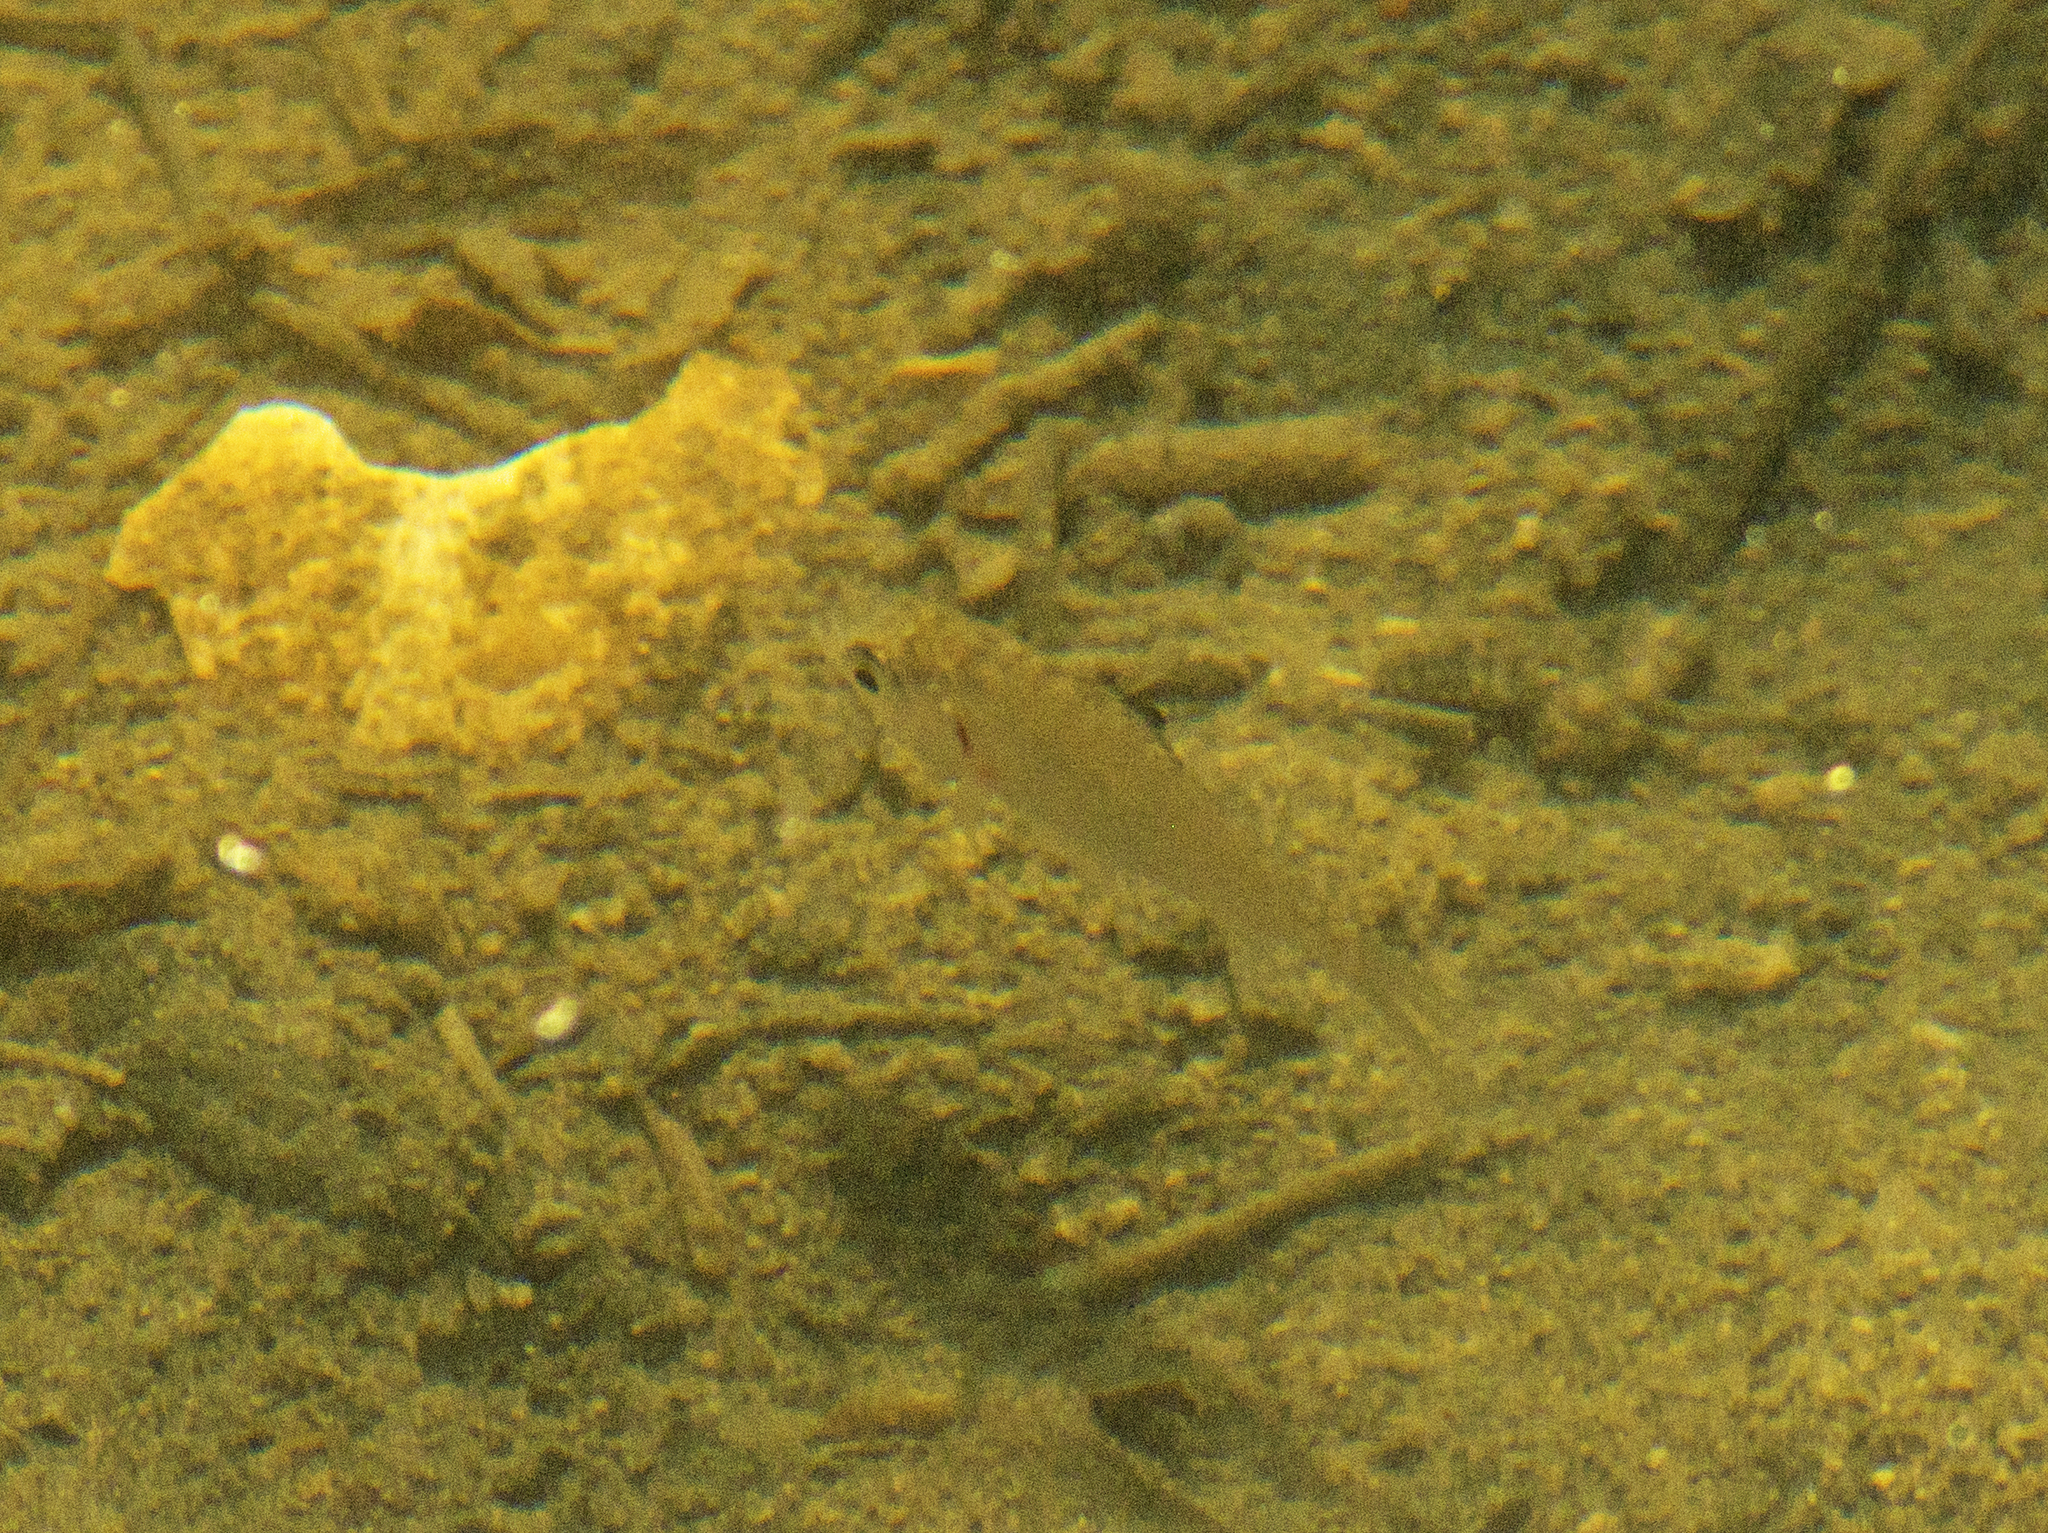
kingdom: Animalia
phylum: Chordata
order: Perciformes
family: Gerreidae
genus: Gerres
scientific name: Gerres subfasciatus
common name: Common silver belly
